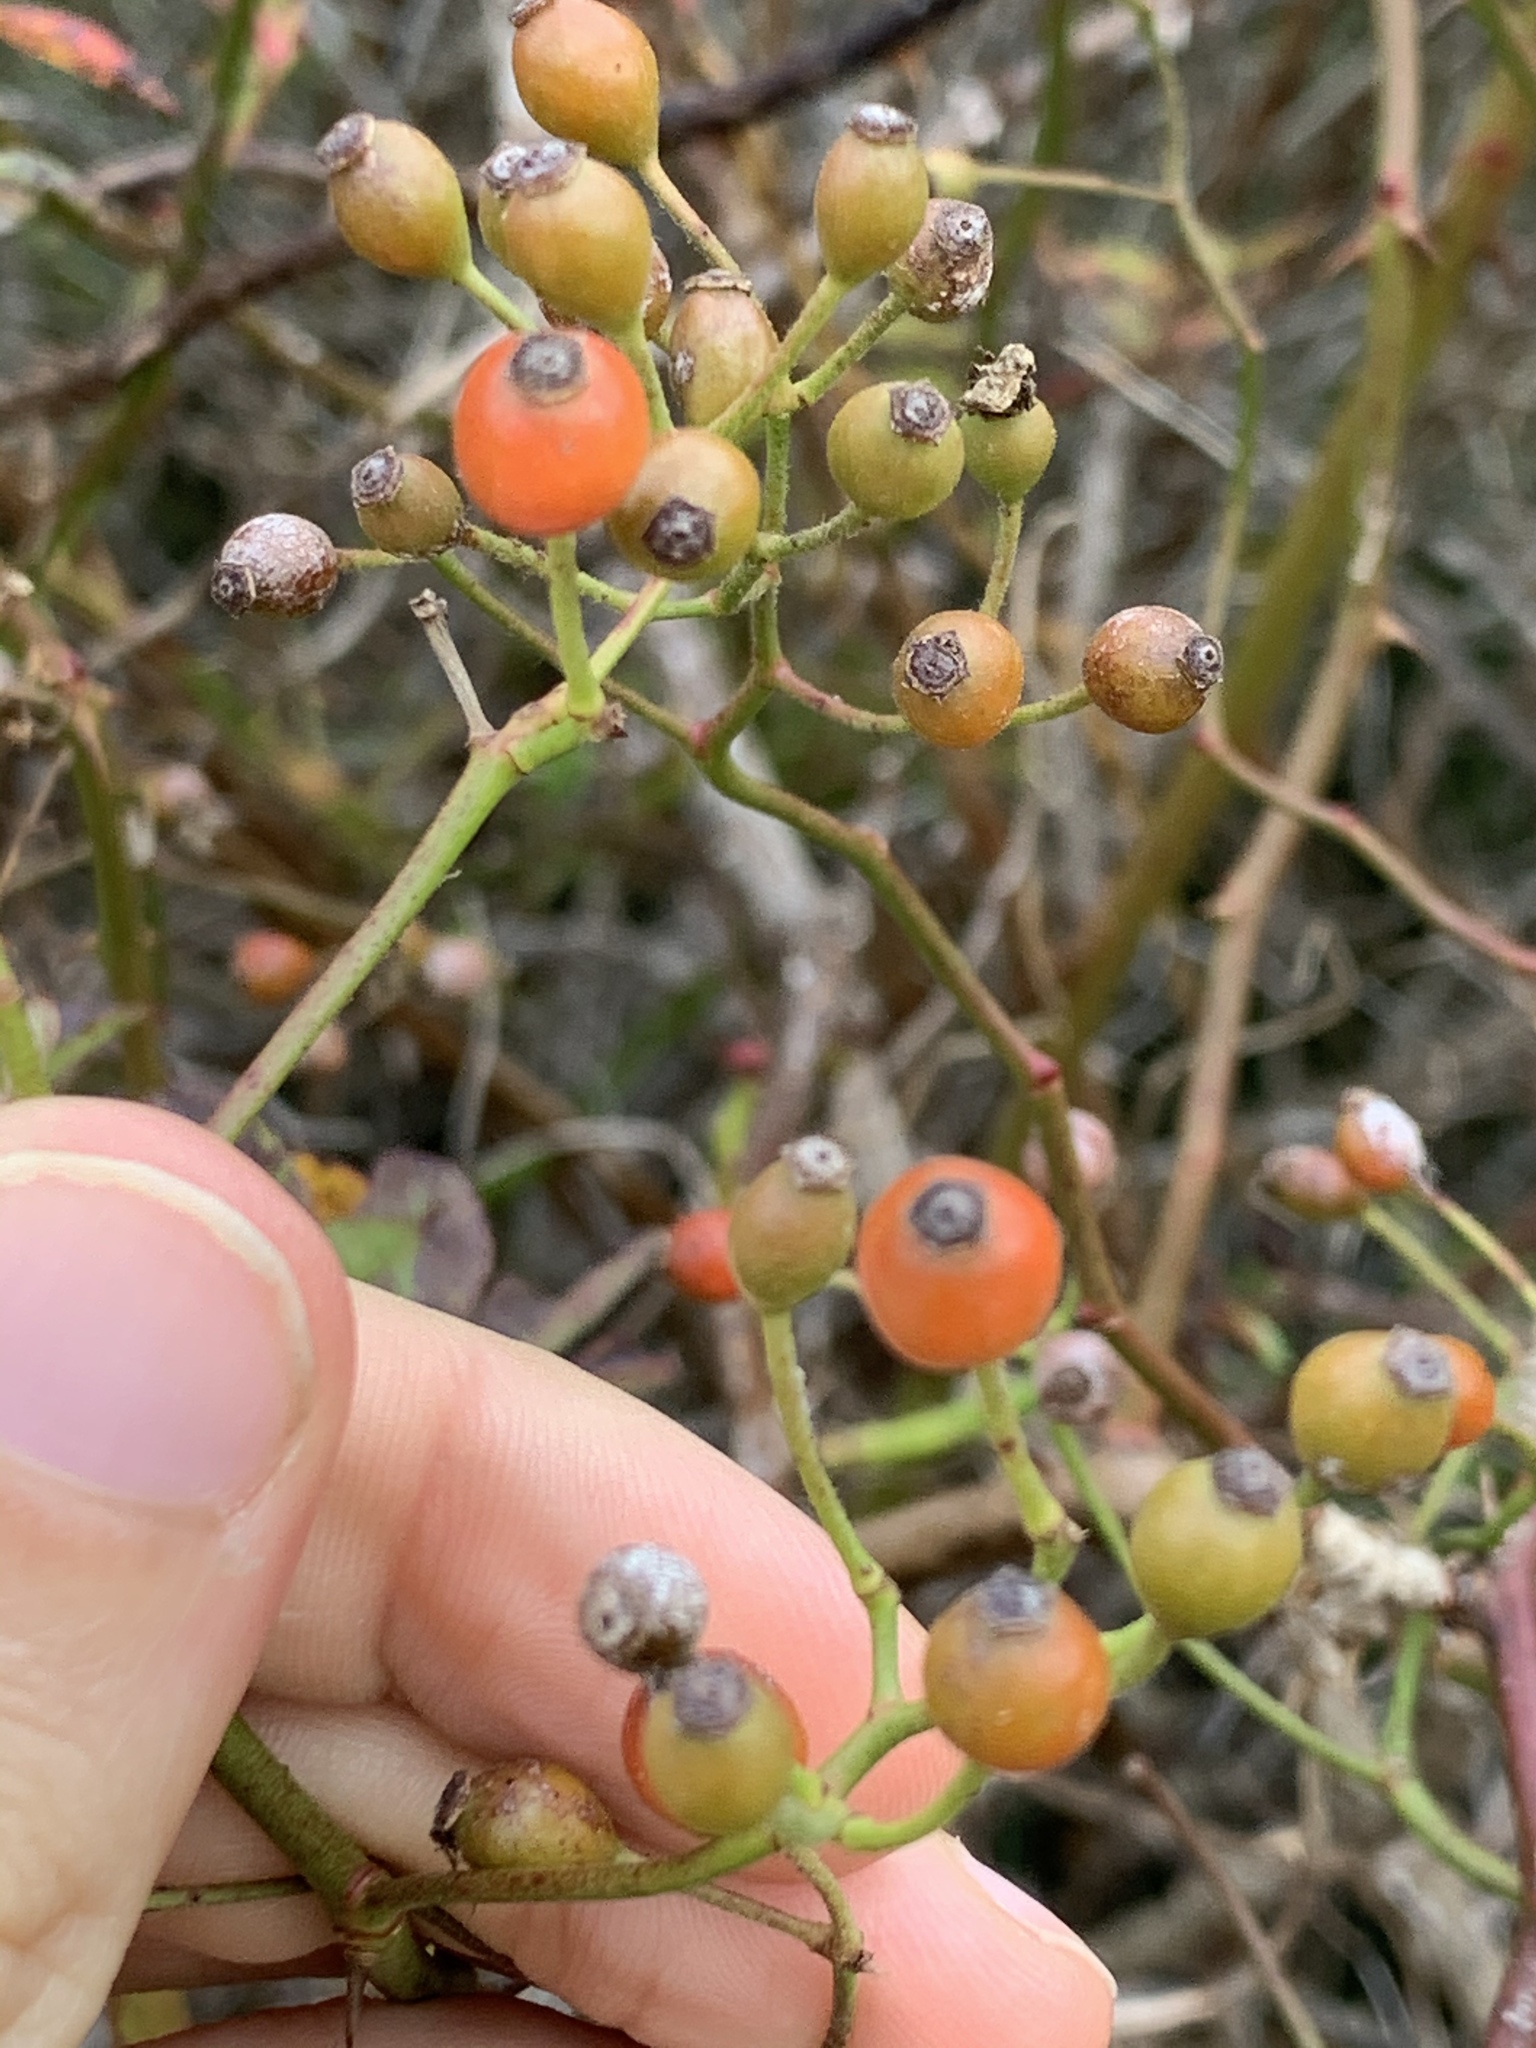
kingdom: Plantae
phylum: Tracheophyta
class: Magnoliopsida
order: Rosales
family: Rosaceae
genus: Rosa
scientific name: Rosa multiflora
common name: Multiflora rose
